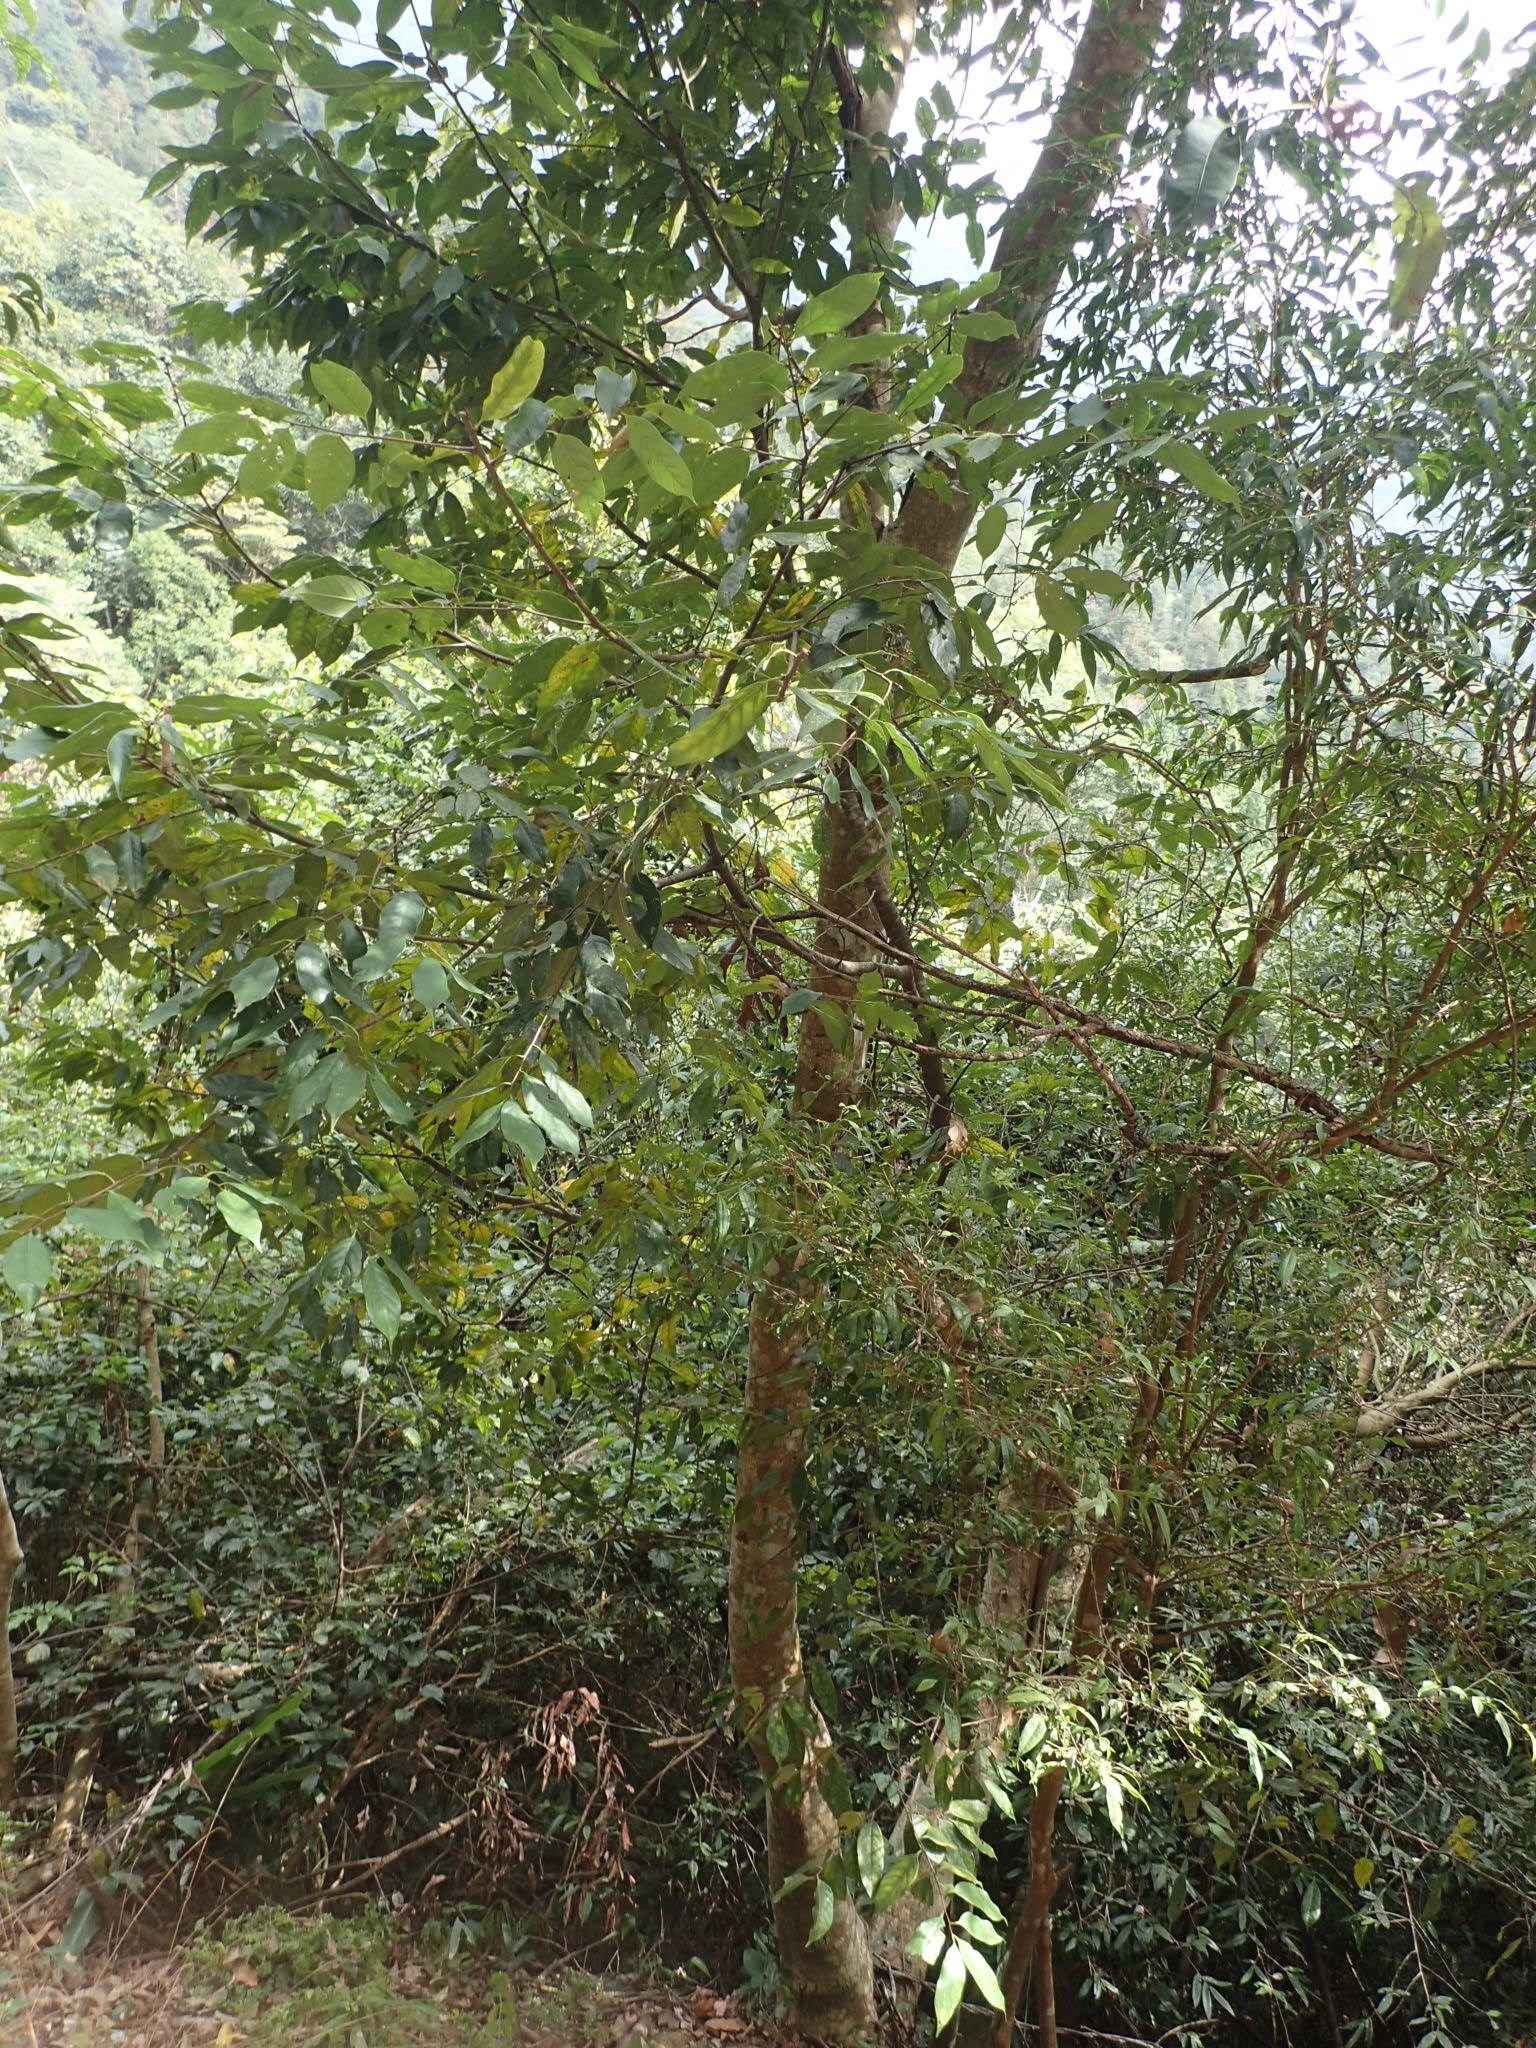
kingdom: Plantae
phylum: Tracheophyta
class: Magnoliopsida
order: Fagales
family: Fagaceae
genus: Castanopsis
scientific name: Castanopsis kawakamii
